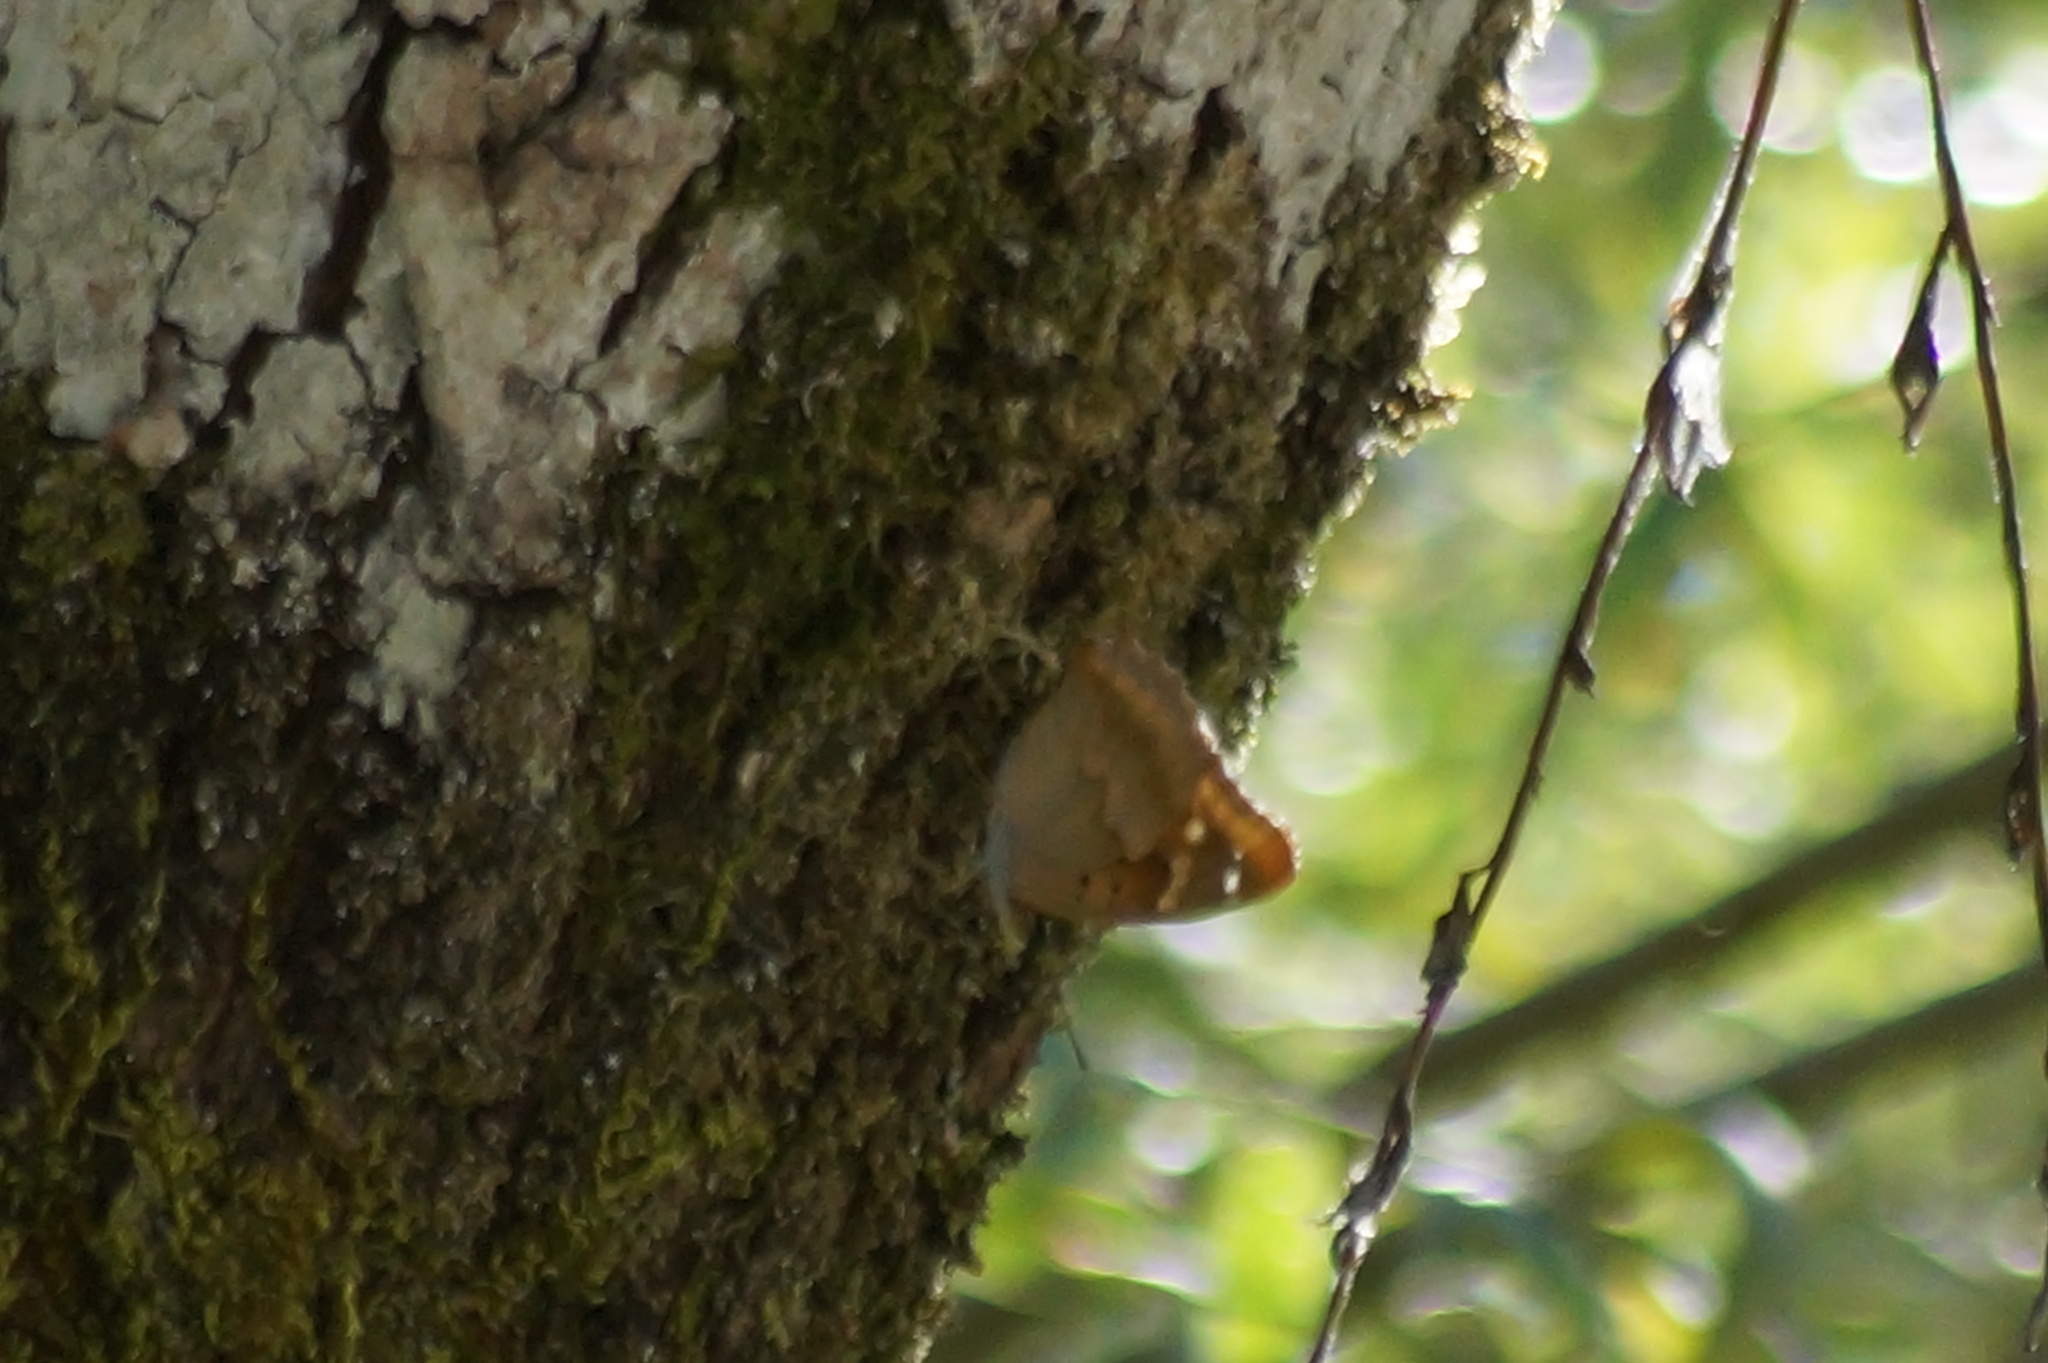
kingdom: Animalia
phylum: Arthropoda
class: Insecta
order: Lepidoptera
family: Nymphalidae
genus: Apatura
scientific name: Apatura ilia
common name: Lesser purple emperor
